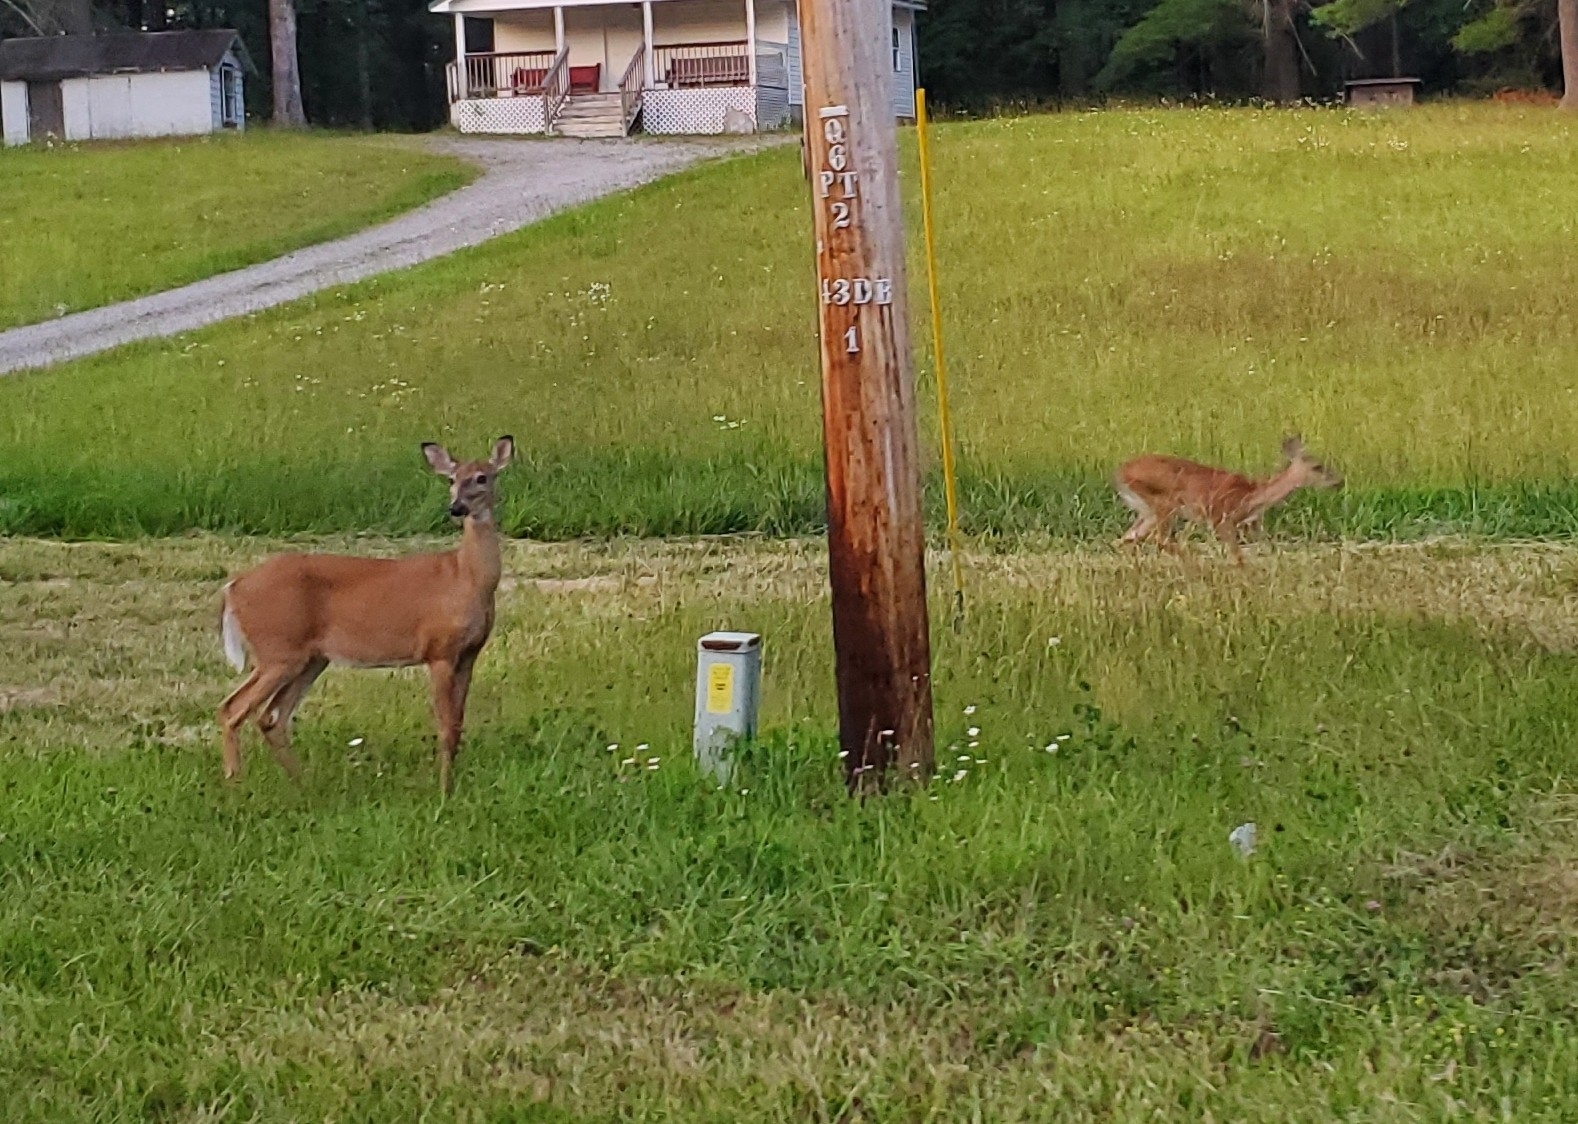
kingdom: Animalia
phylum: Chordata
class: Mammalia
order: Artiodactyla
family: Cervidae
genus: Odocoileus
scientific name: Odocoileus virginianus
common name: White-tailed deer
